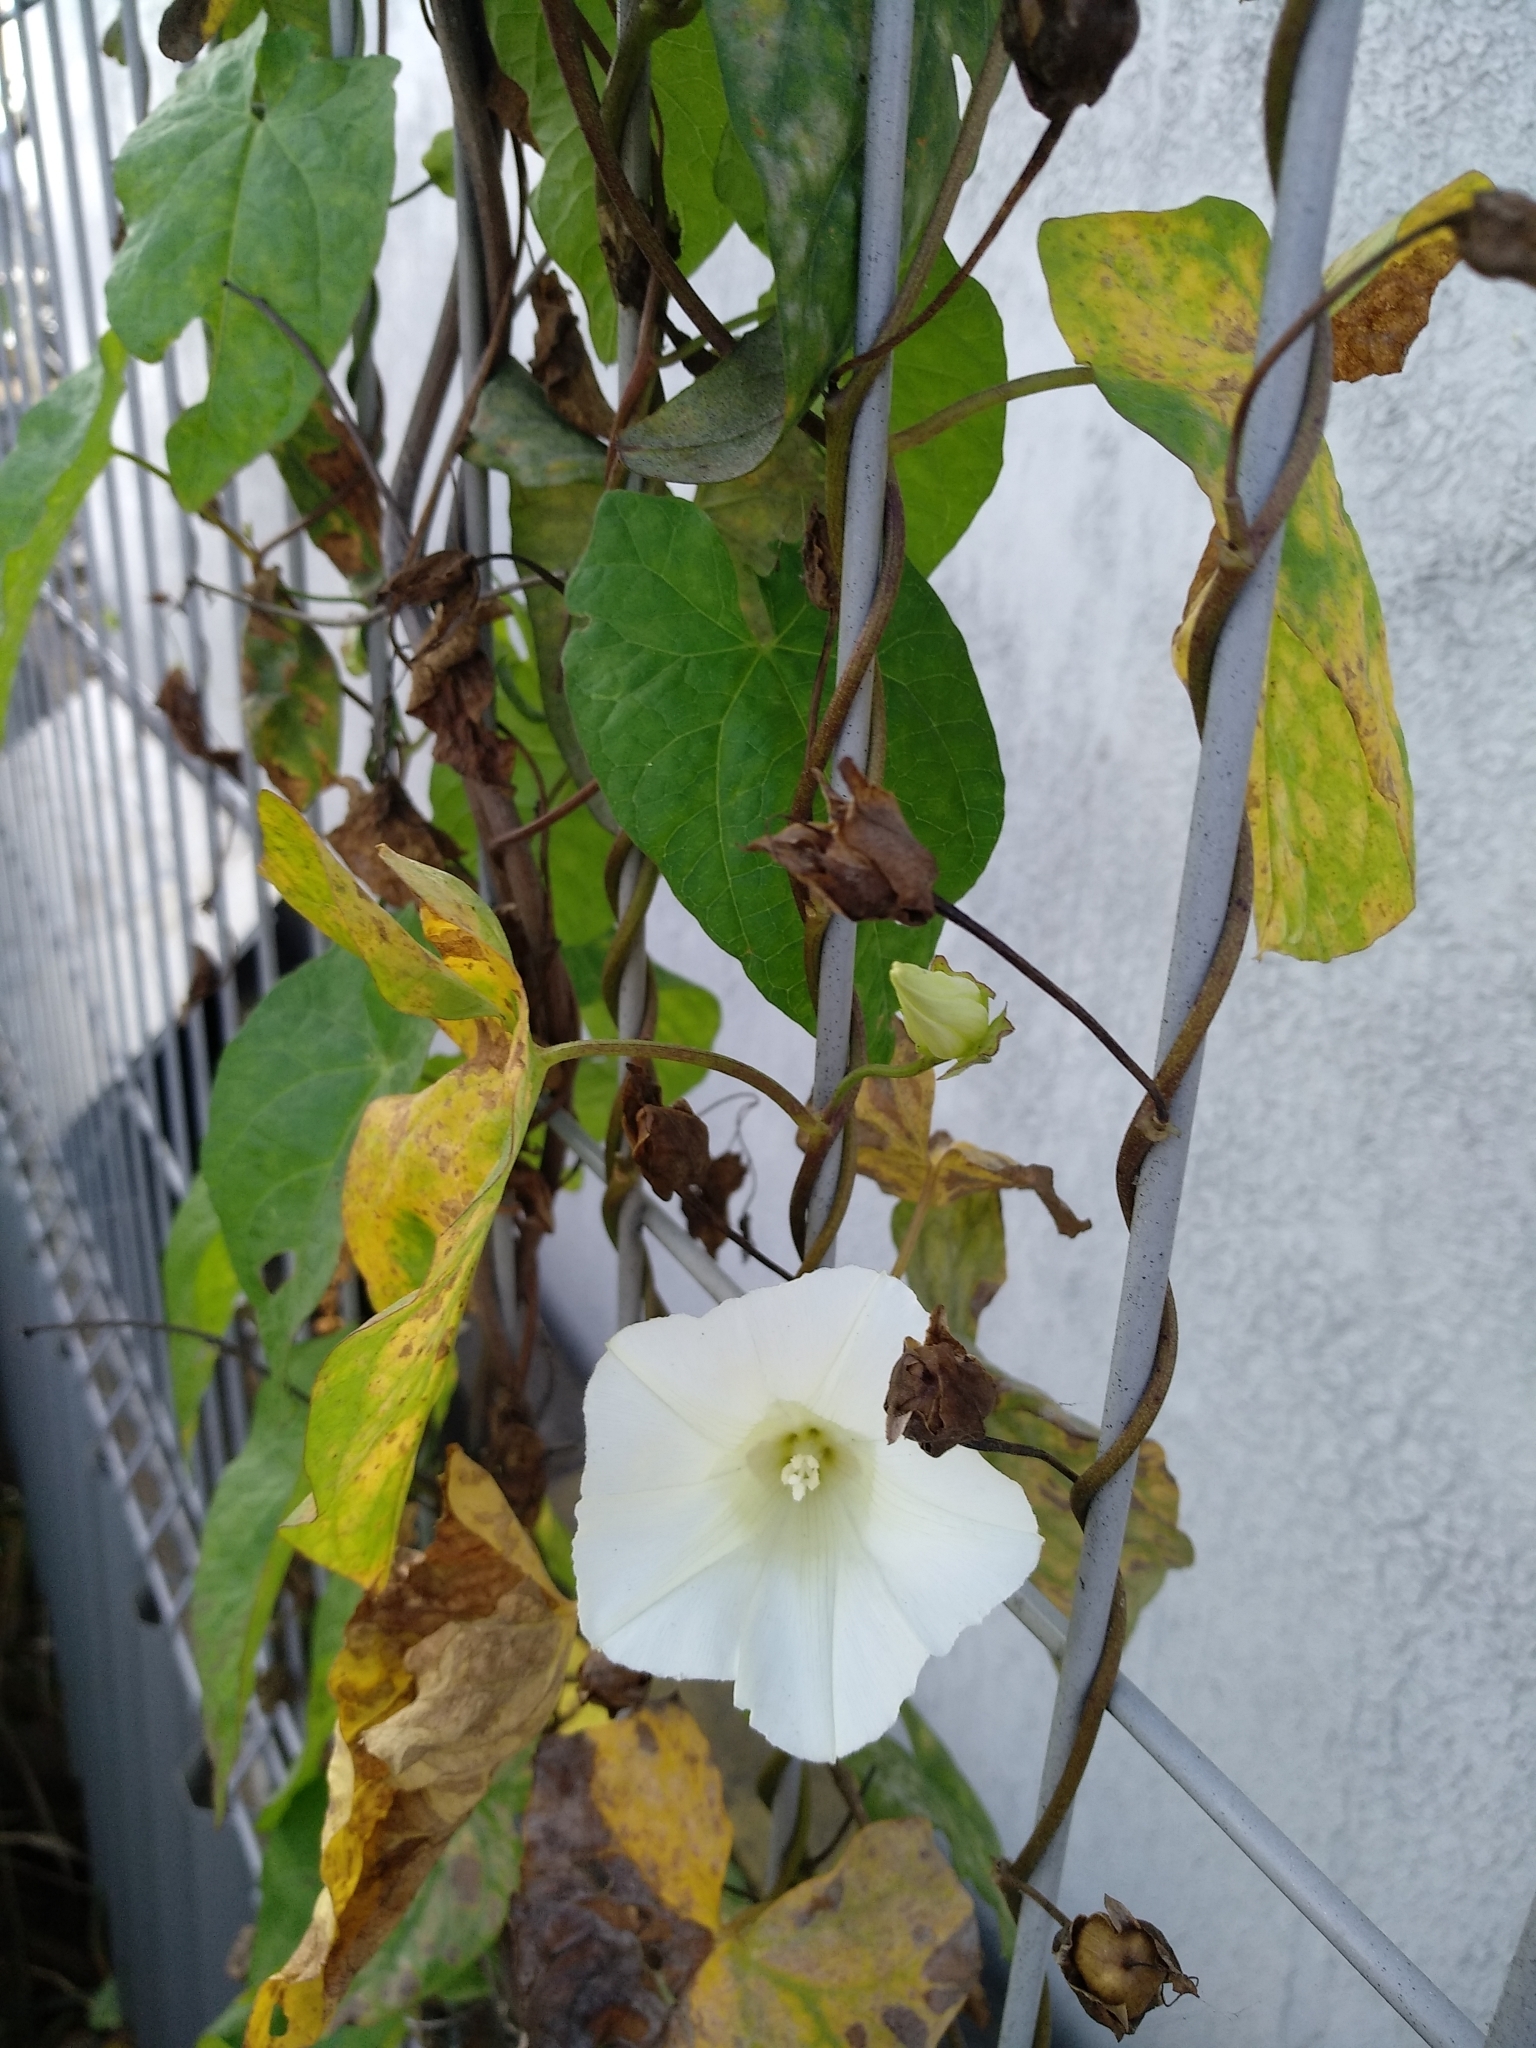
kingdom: Plantae
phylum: Tracheophyta
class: Magnoliopsida
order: Solanales
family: Convolvulaceae
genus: Calystegia
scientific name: Calystegia sepium
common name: Hedge bindweed
